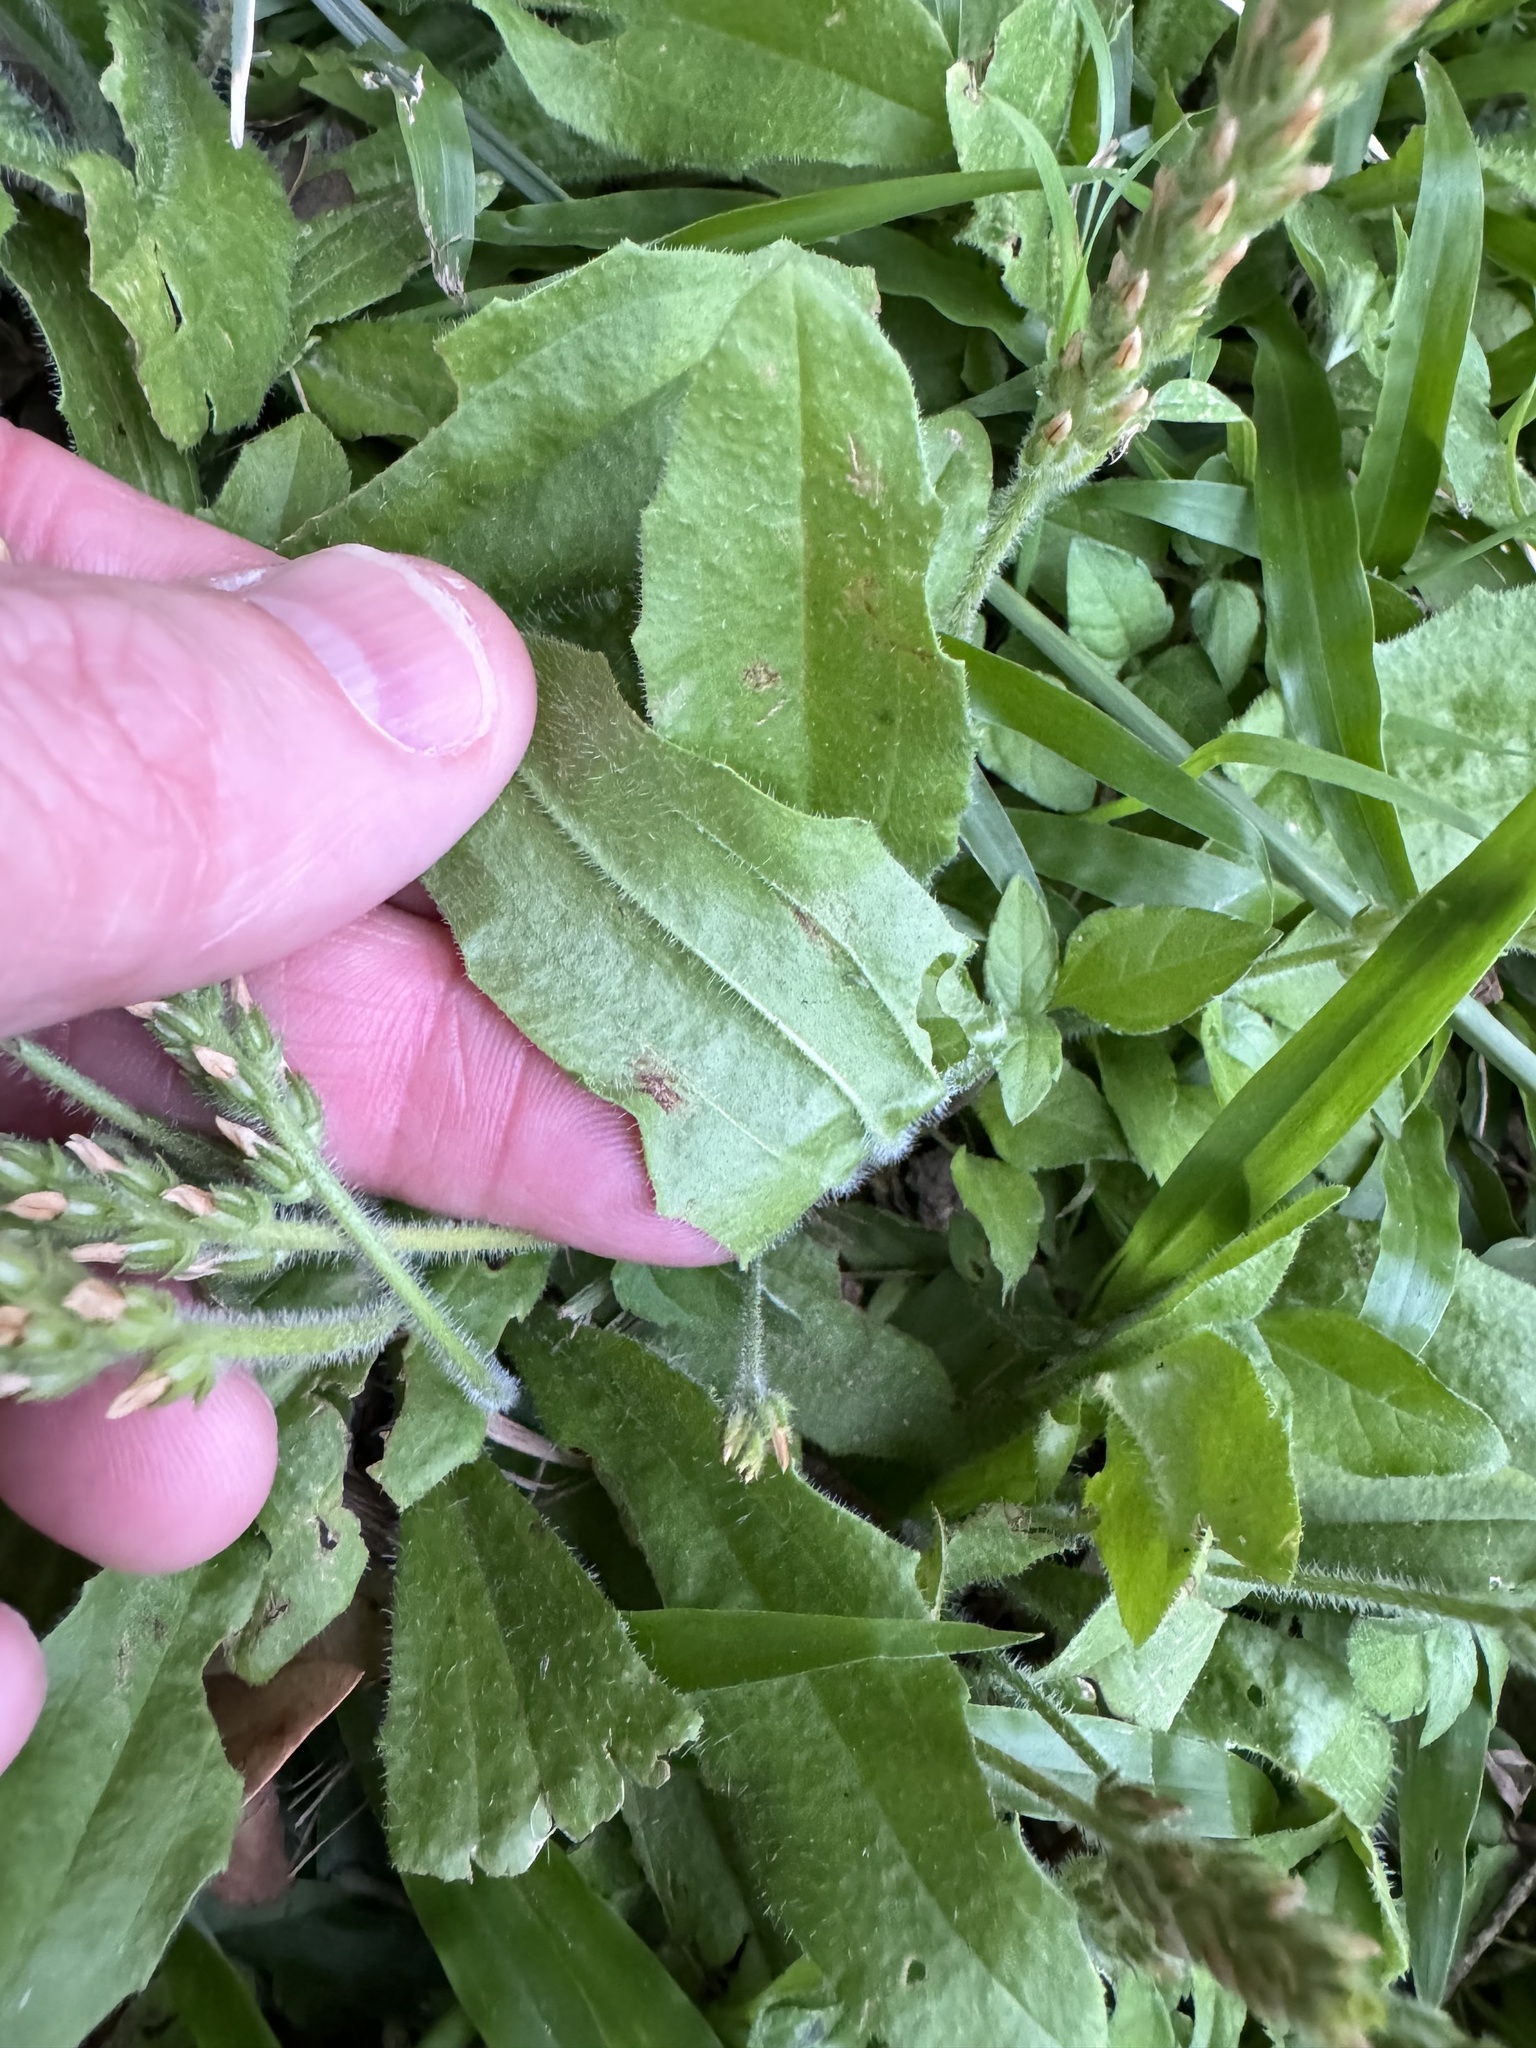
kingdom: Plantae
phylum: Tracheophyta
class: Magnoliopsida
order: Lamiales
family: Plantaginaceae
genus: Plantago
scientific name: Plantago rhodosperma
